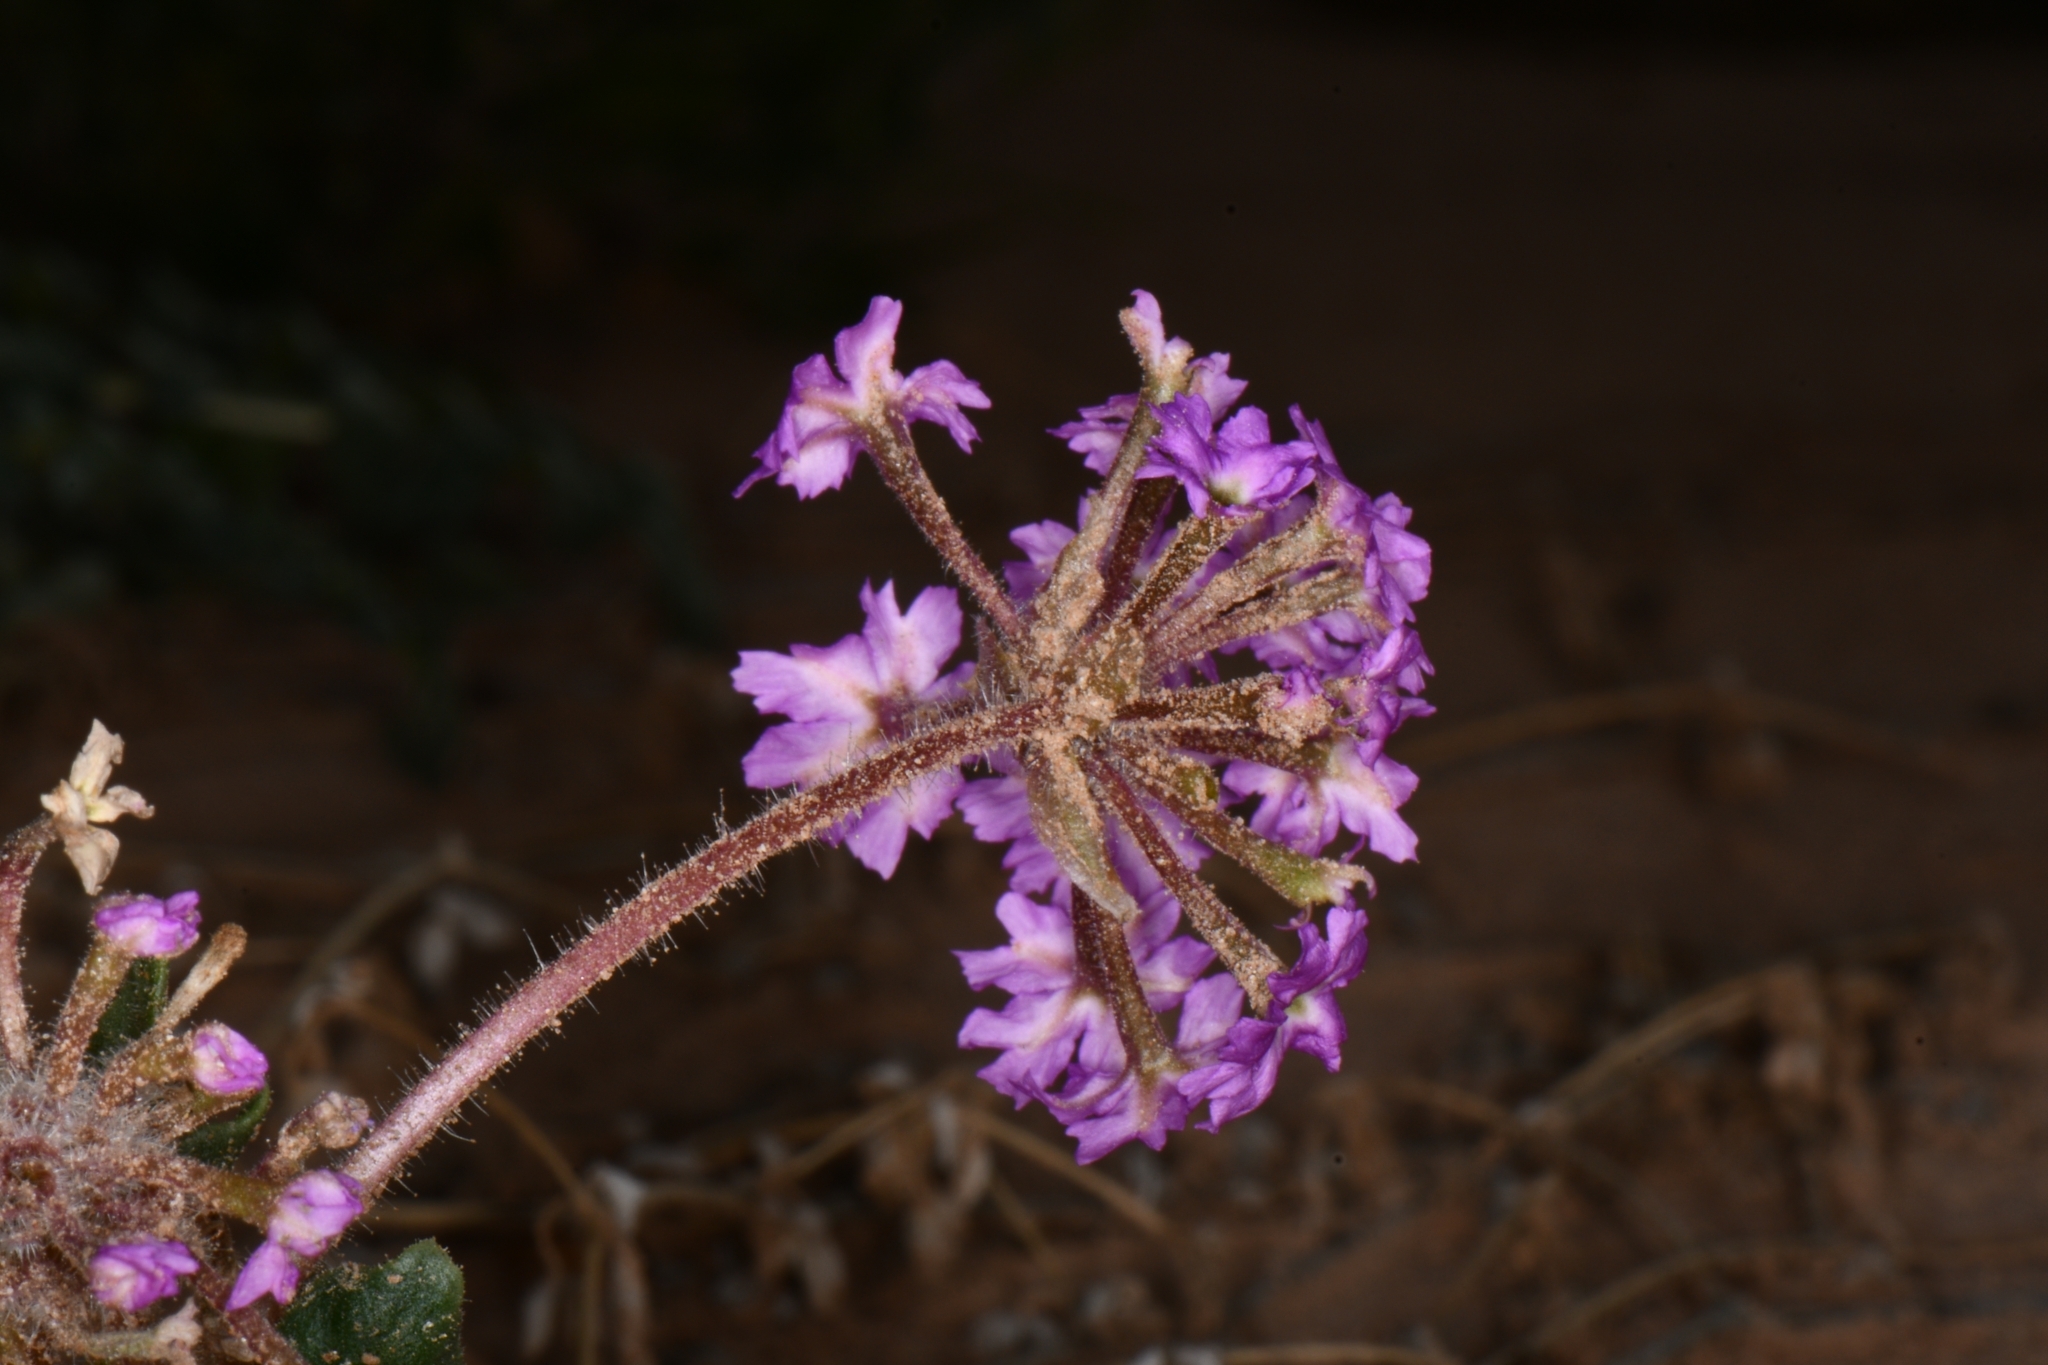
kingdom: Plantae
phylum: Tracheophyta
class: Magnoliopsida
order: Caryophyllales
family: Nyctaginaceae
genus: Abronia
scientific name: Abronia villosa
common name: Desert sand-verbena
